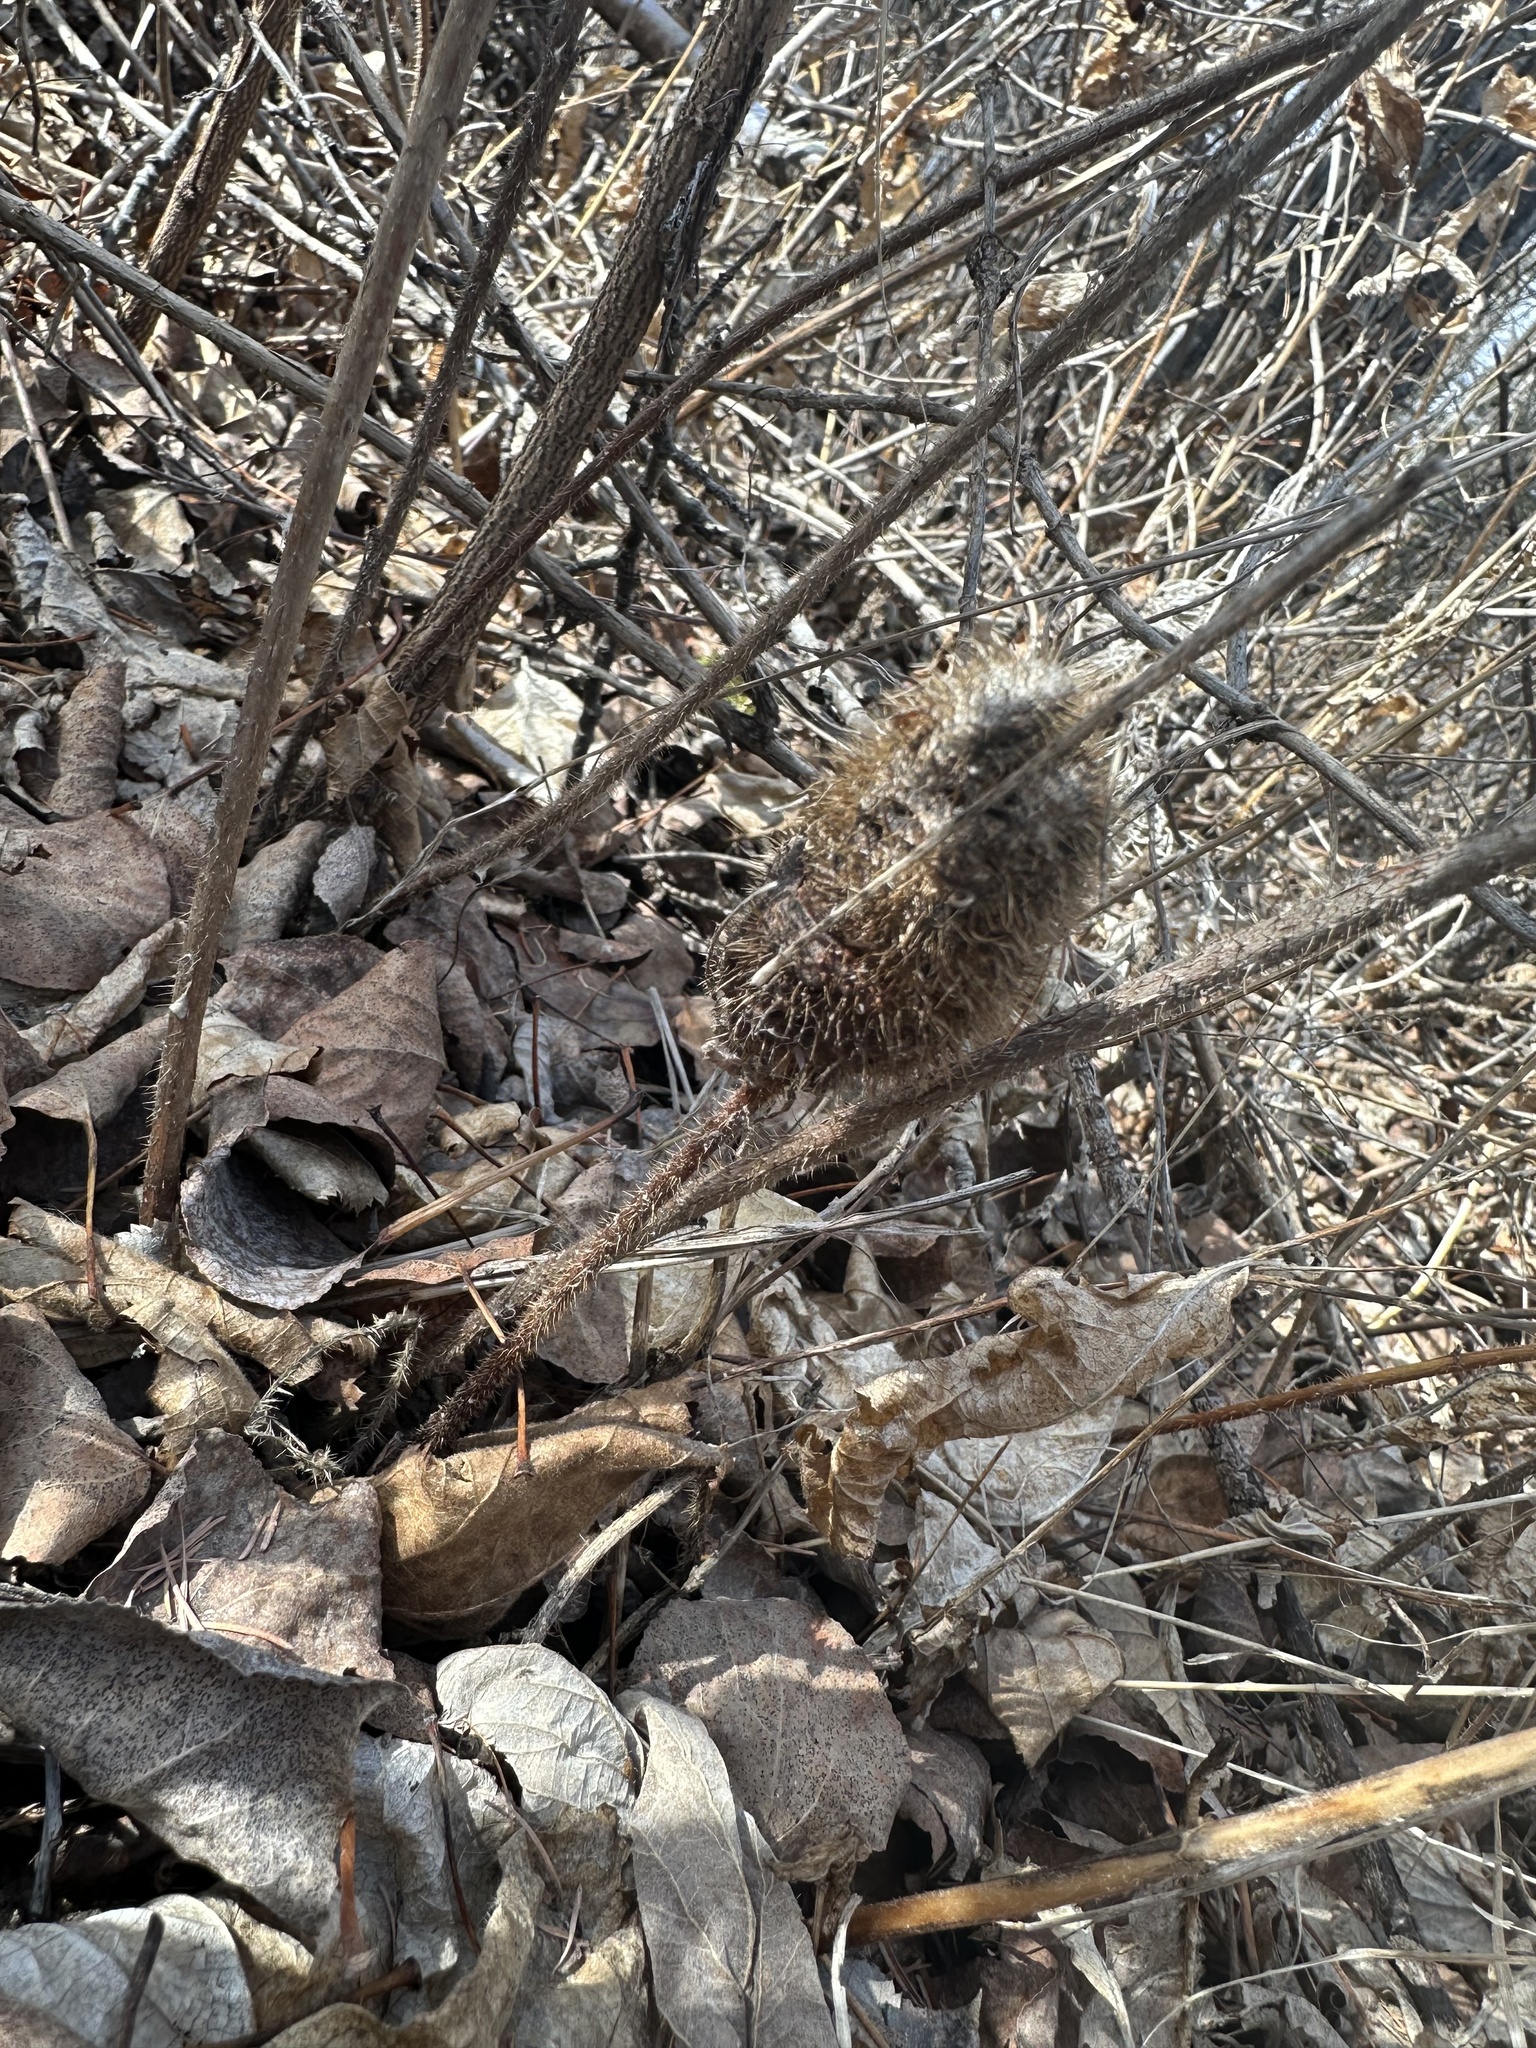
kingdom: Animalia
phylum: Arthropoda
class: Insecta
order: Hymenoptera
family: Cynipidae
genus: Diplolepis
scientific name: Diplolepis spinosa
